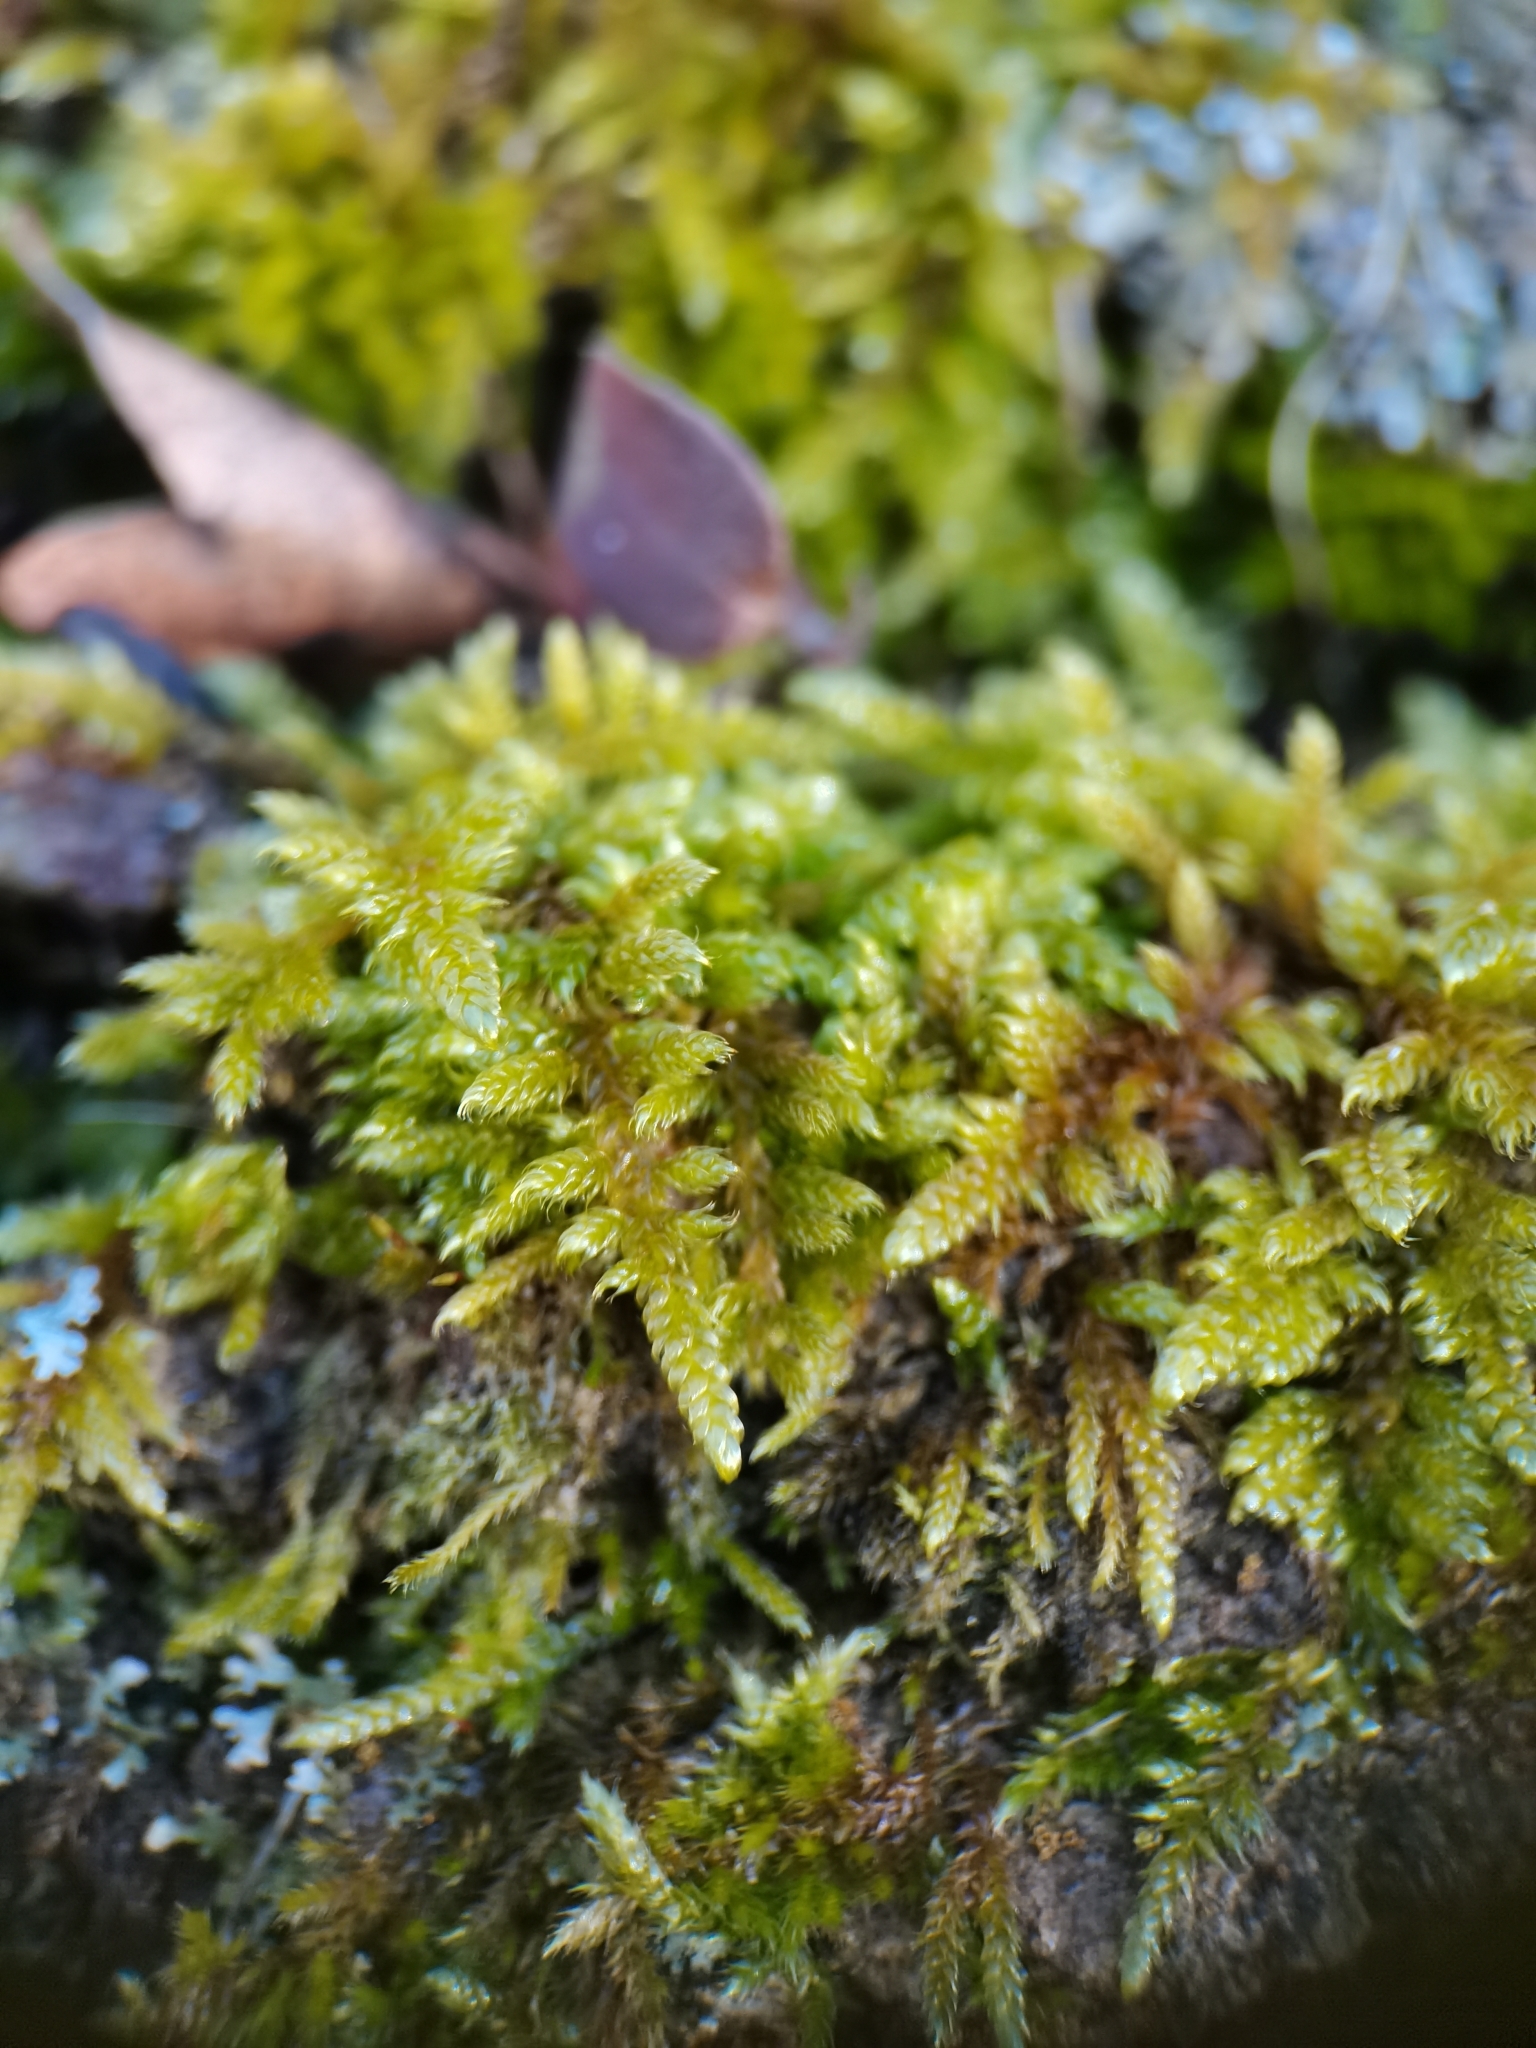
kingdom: Plantae
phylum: Bryophyta
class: Bryopsida
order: Hypnales
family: Hypnaceae
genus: Hypnum
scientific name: Hypnum cupressiforme
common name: Cypress-leaved plait-moss
